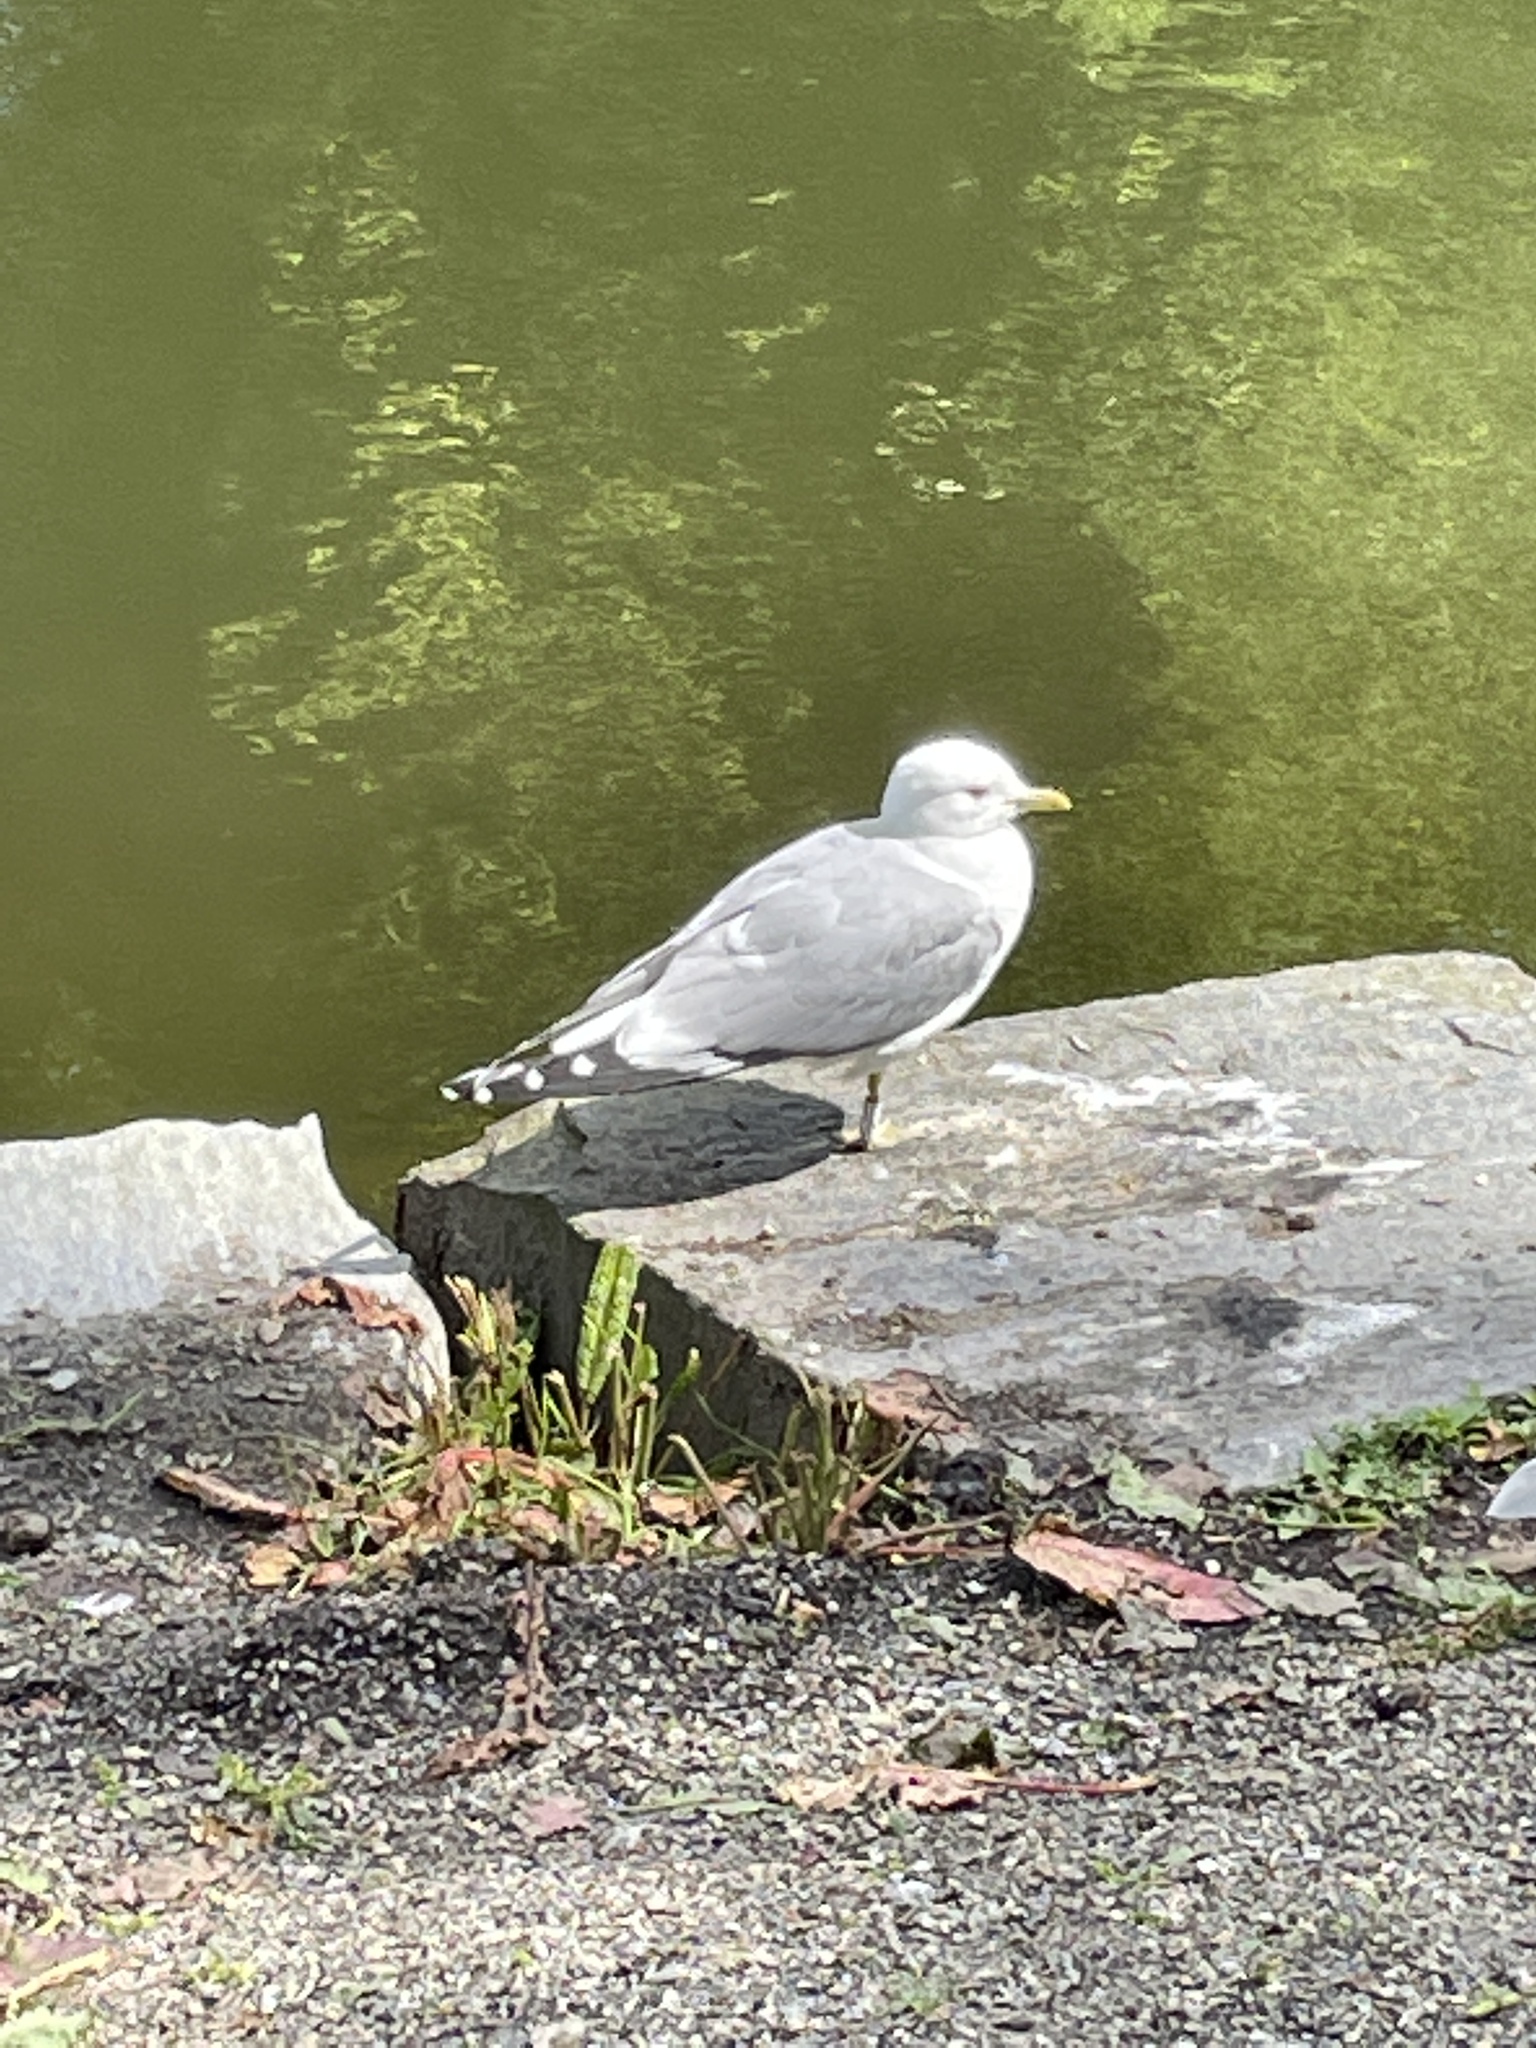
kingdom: Animalia
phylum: Chordata
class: Aves
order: Charadriiformes
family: Laridae
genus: Larus
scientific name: Larus canus
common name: Mew gull
